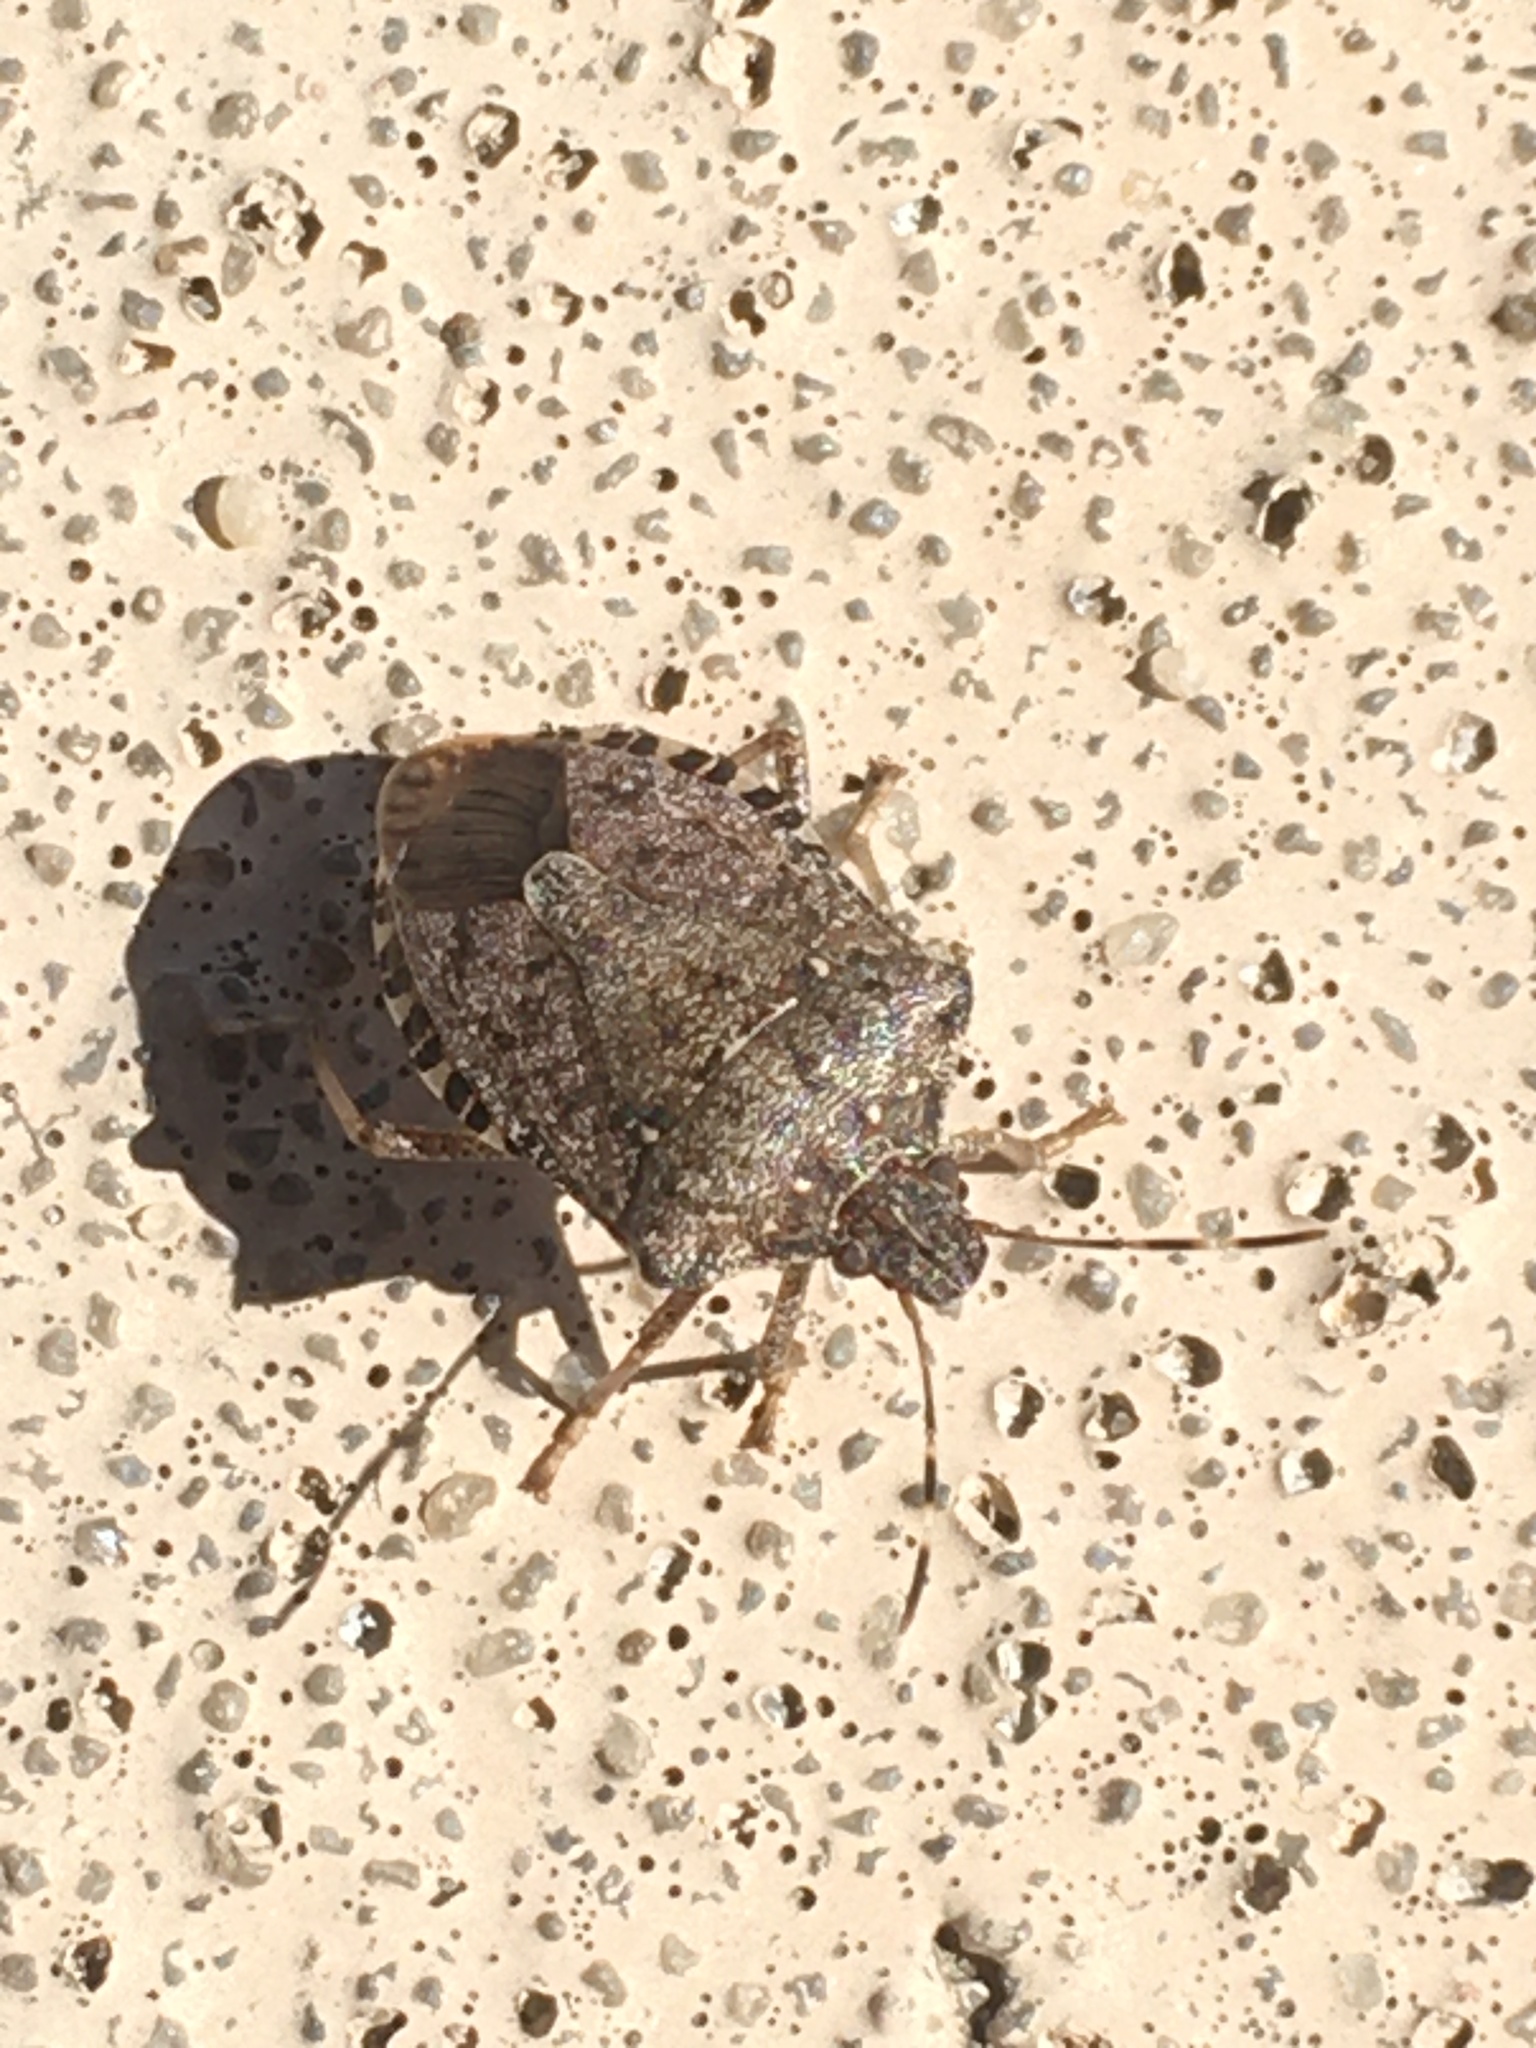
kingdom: Animalia
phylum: Arthropoda
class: Insecta
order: Hemiptera
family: Pentatomidae
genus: Halyomorpha
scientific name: Halyomorpha halys
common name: Brown marmorated stink bug
